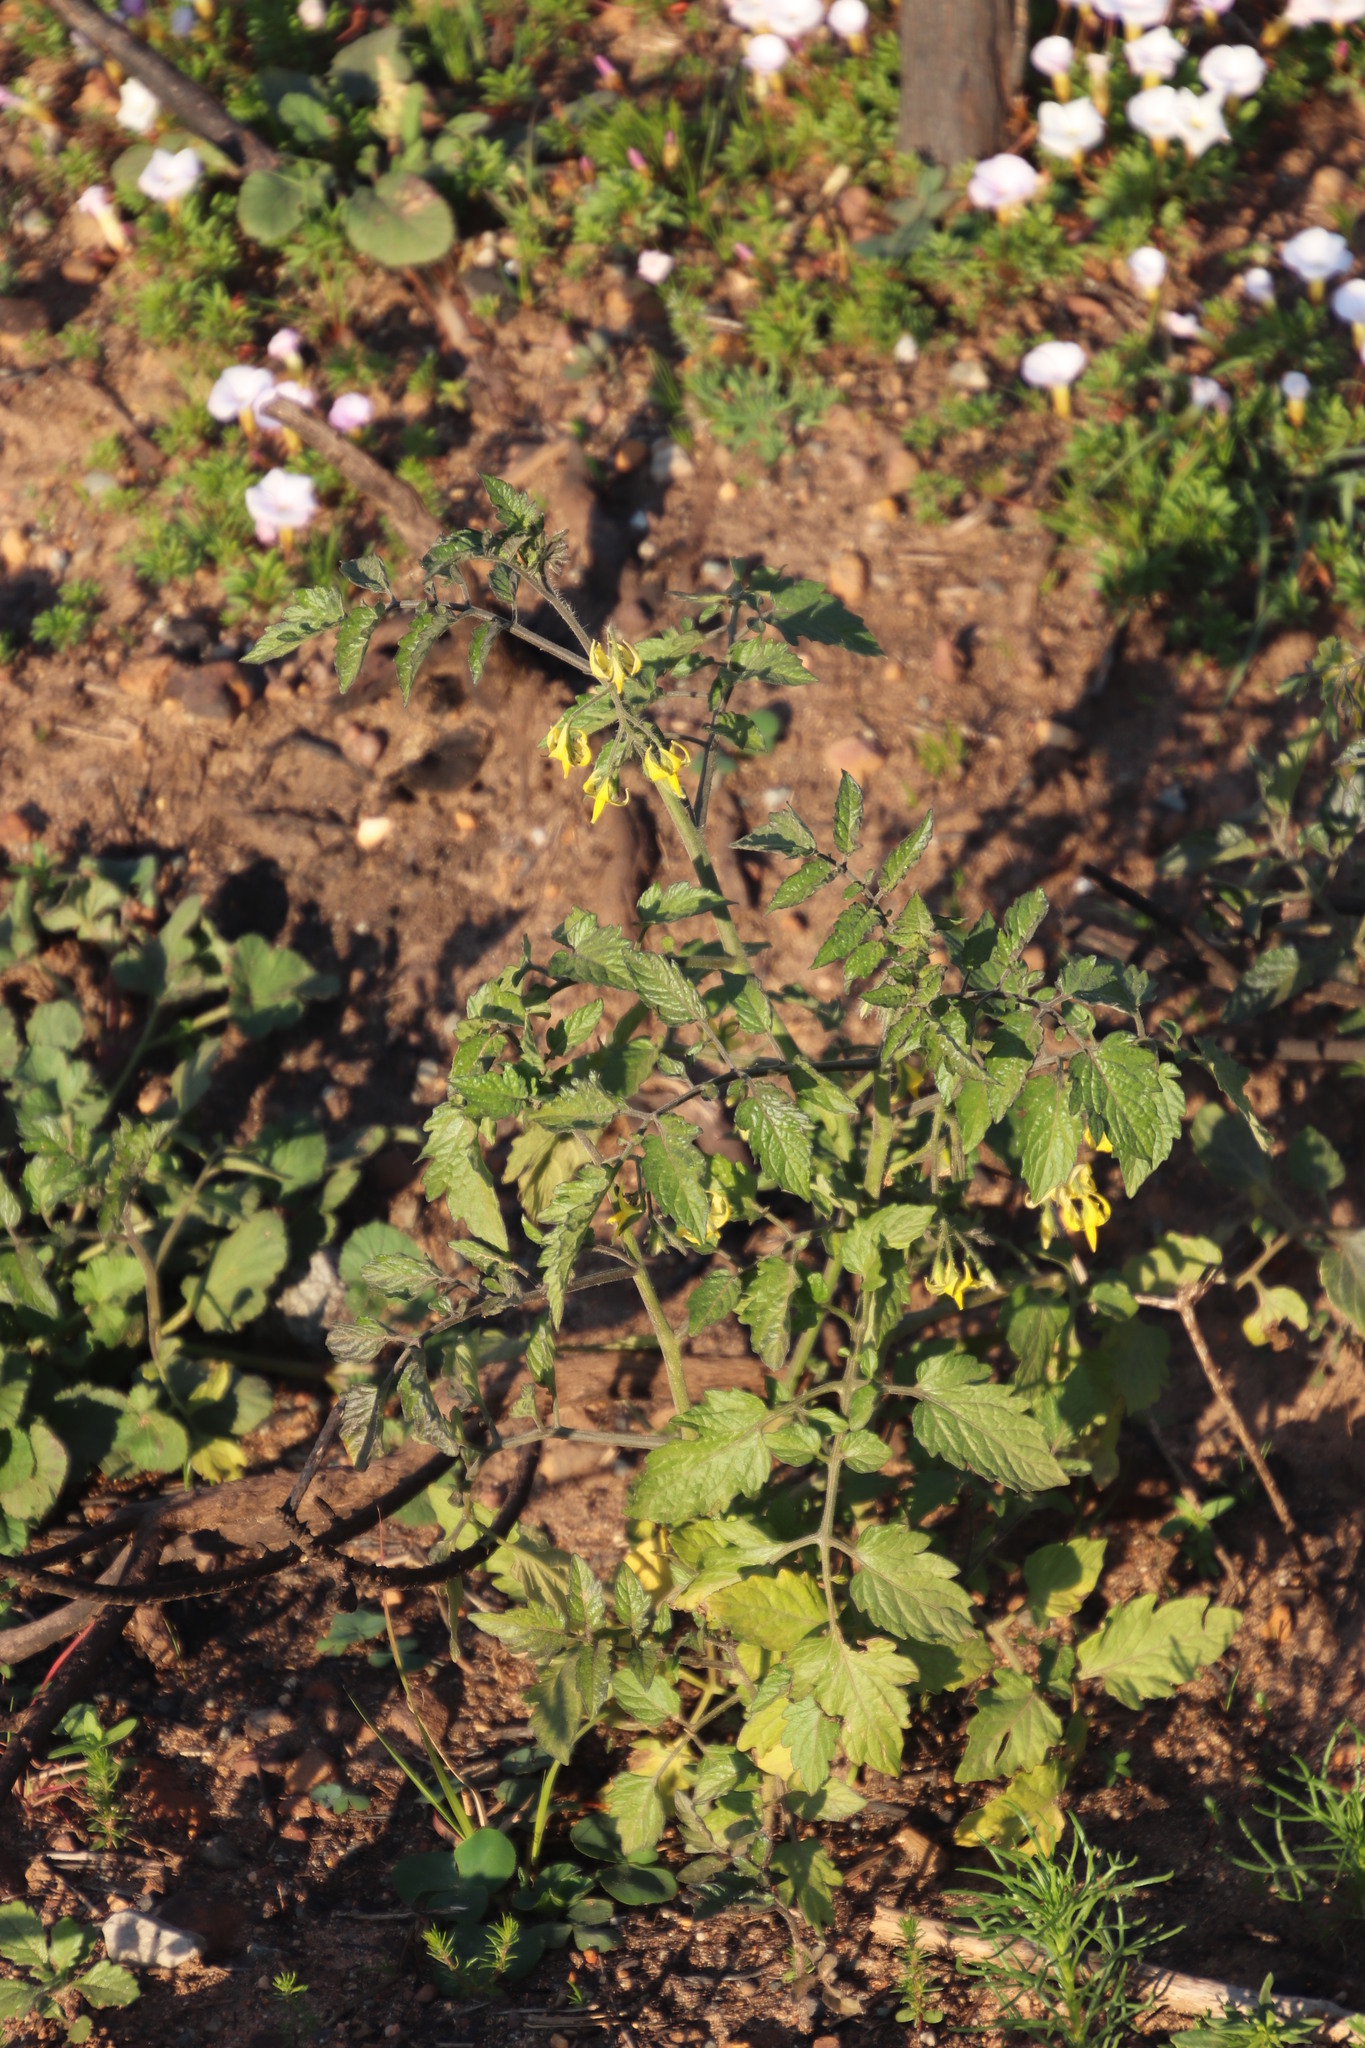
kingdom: Plantae
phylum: Tracheophyta
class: Magnoliopsida
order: Solanales
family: Solanaceae
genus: Solanum
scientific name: Solanum lycopersicum
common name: Garden tomato
